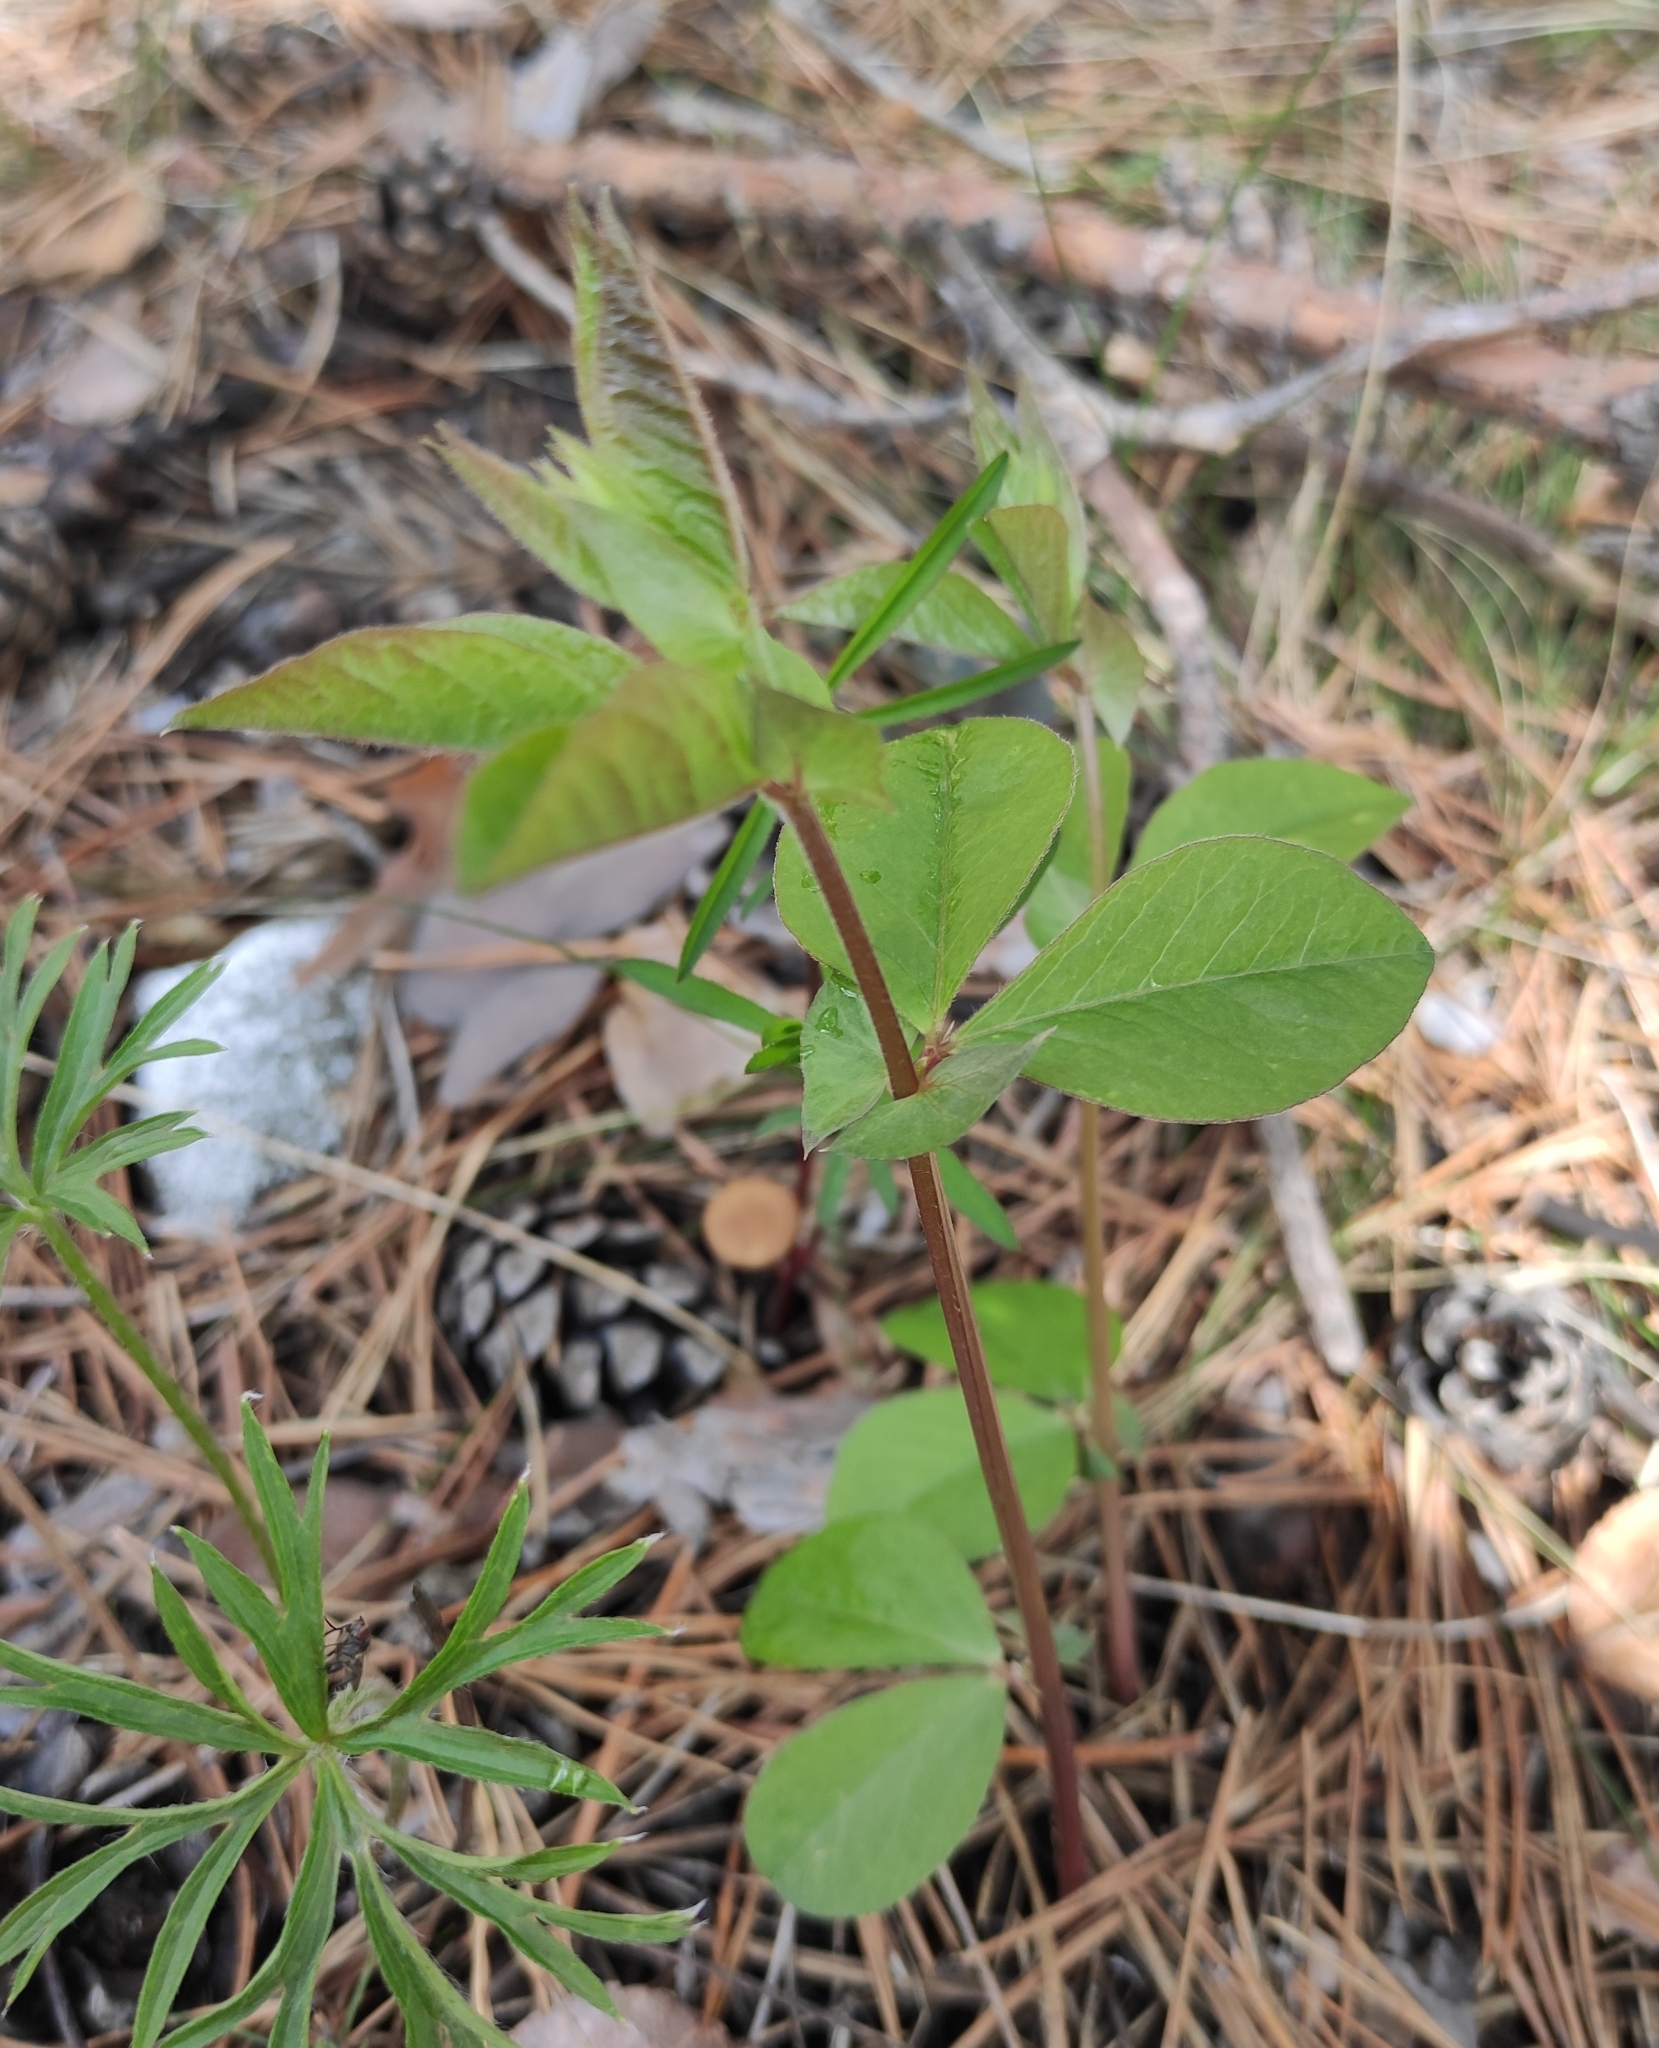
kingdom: Plantae
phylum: Tracheophyta
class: Magnoliopsida
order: Fabales
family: Fabaceae
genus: Vicia
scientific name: Vicia unijuga
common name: Two-leaf vetch
